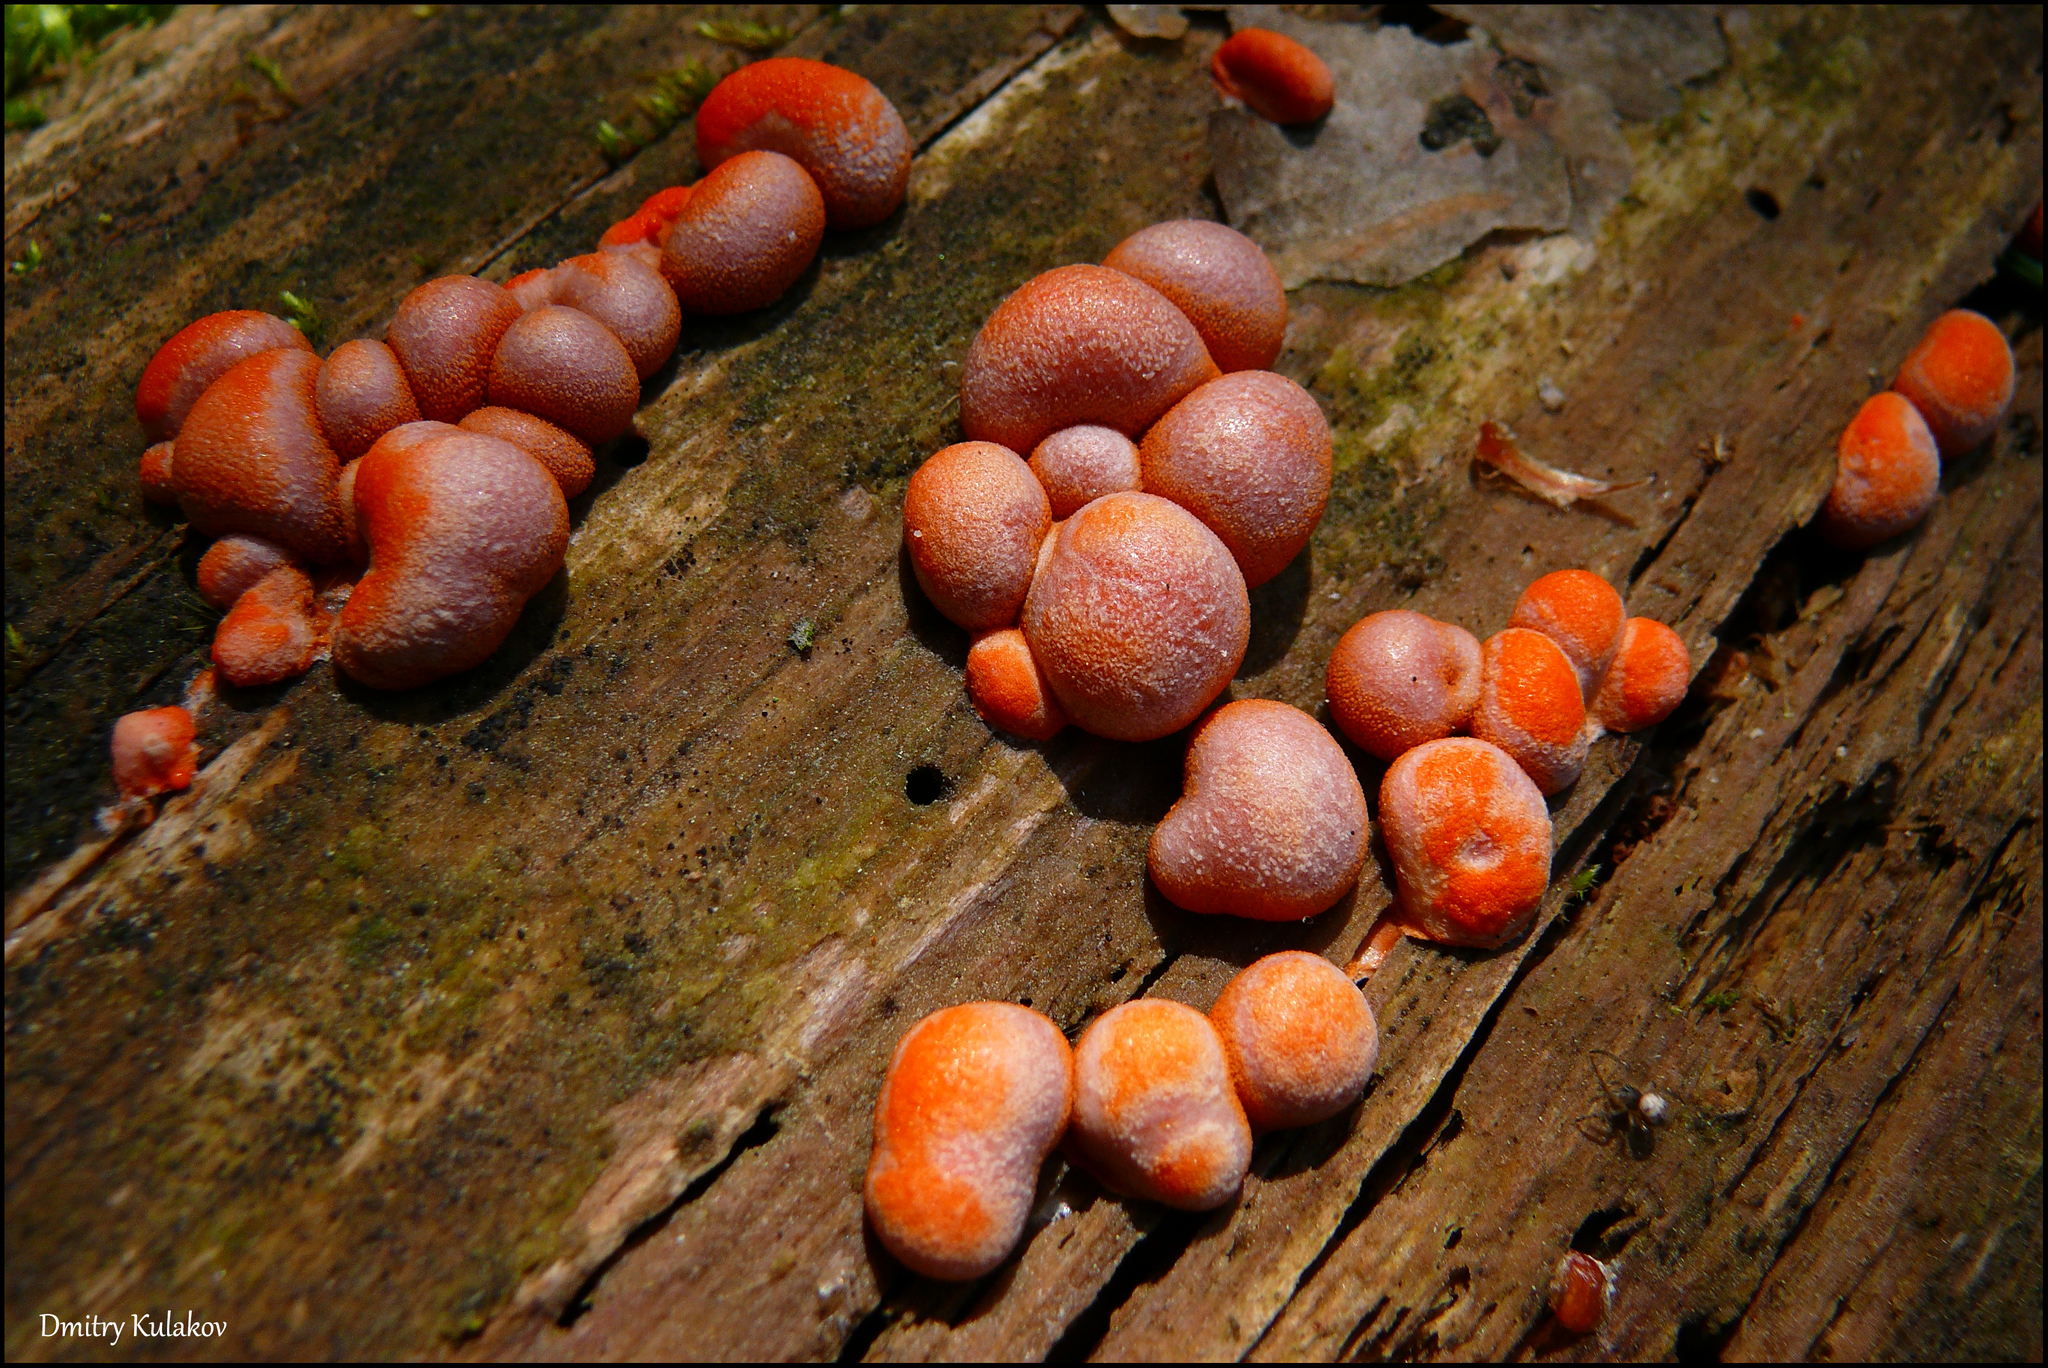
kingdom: Protozoa
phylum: Mycetozoa
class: Myxomycetes
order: Cribrariales
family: Tubiferaceae
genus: Lycogala
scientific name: Lycogala epidendrum
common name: Wolf's milk
